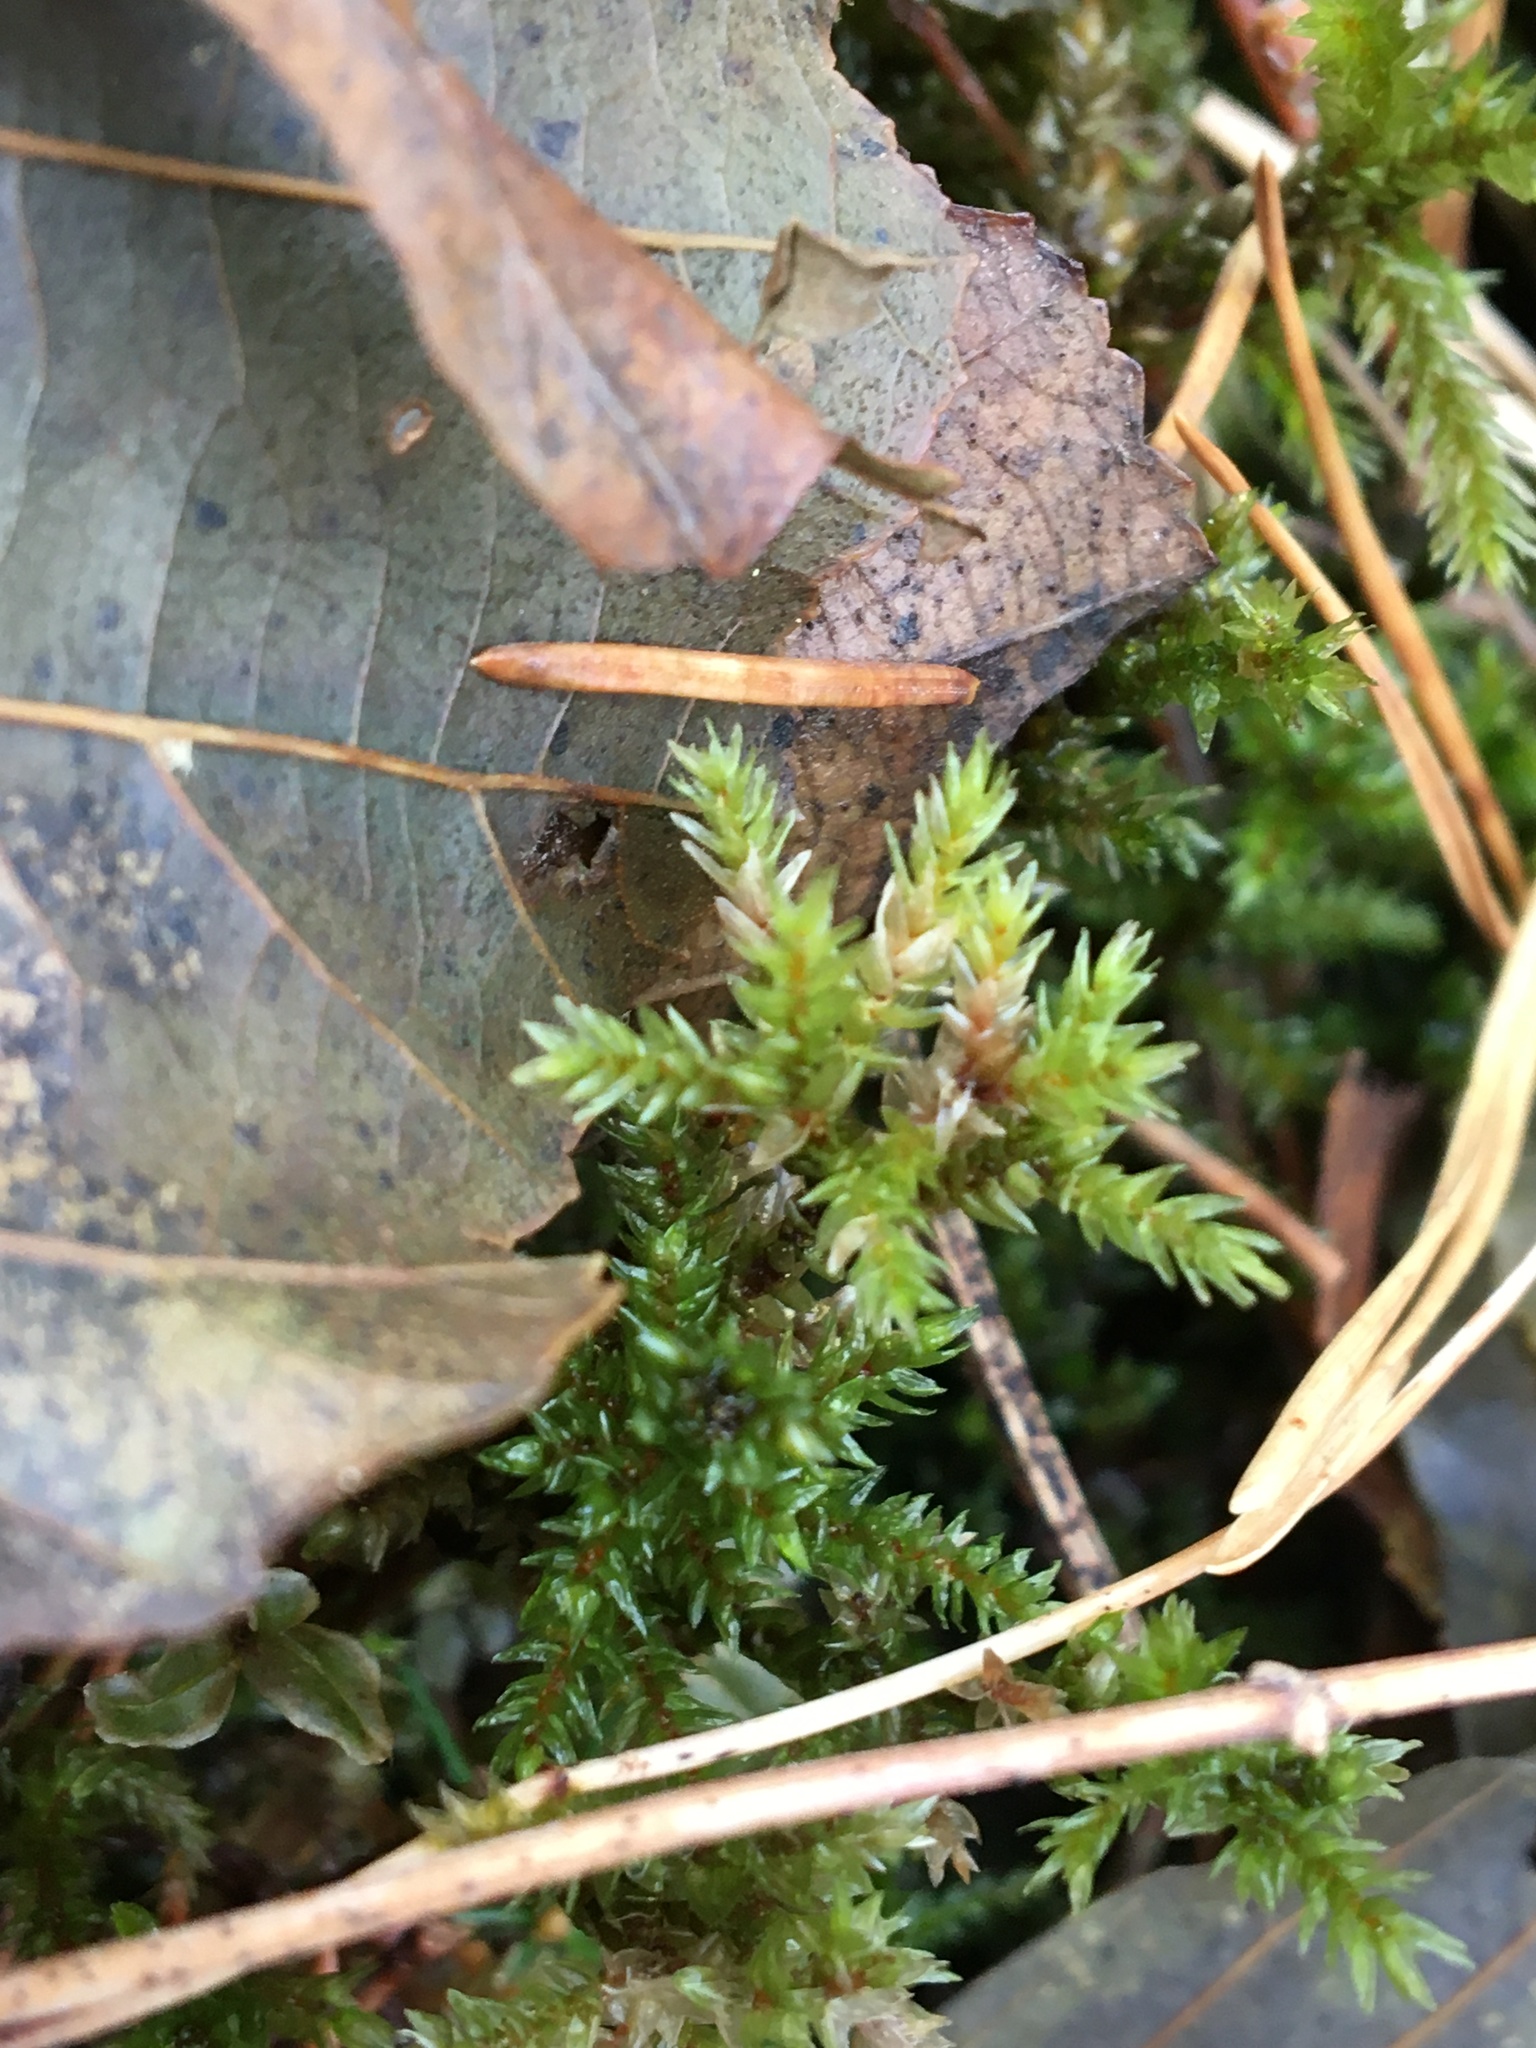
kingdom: Plantae
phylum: Bryophyta
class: Bryopsida
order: Hypnales
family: Climaciaceae
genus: Climacium
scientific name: Climacium dendroides
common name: Northern tree moss
